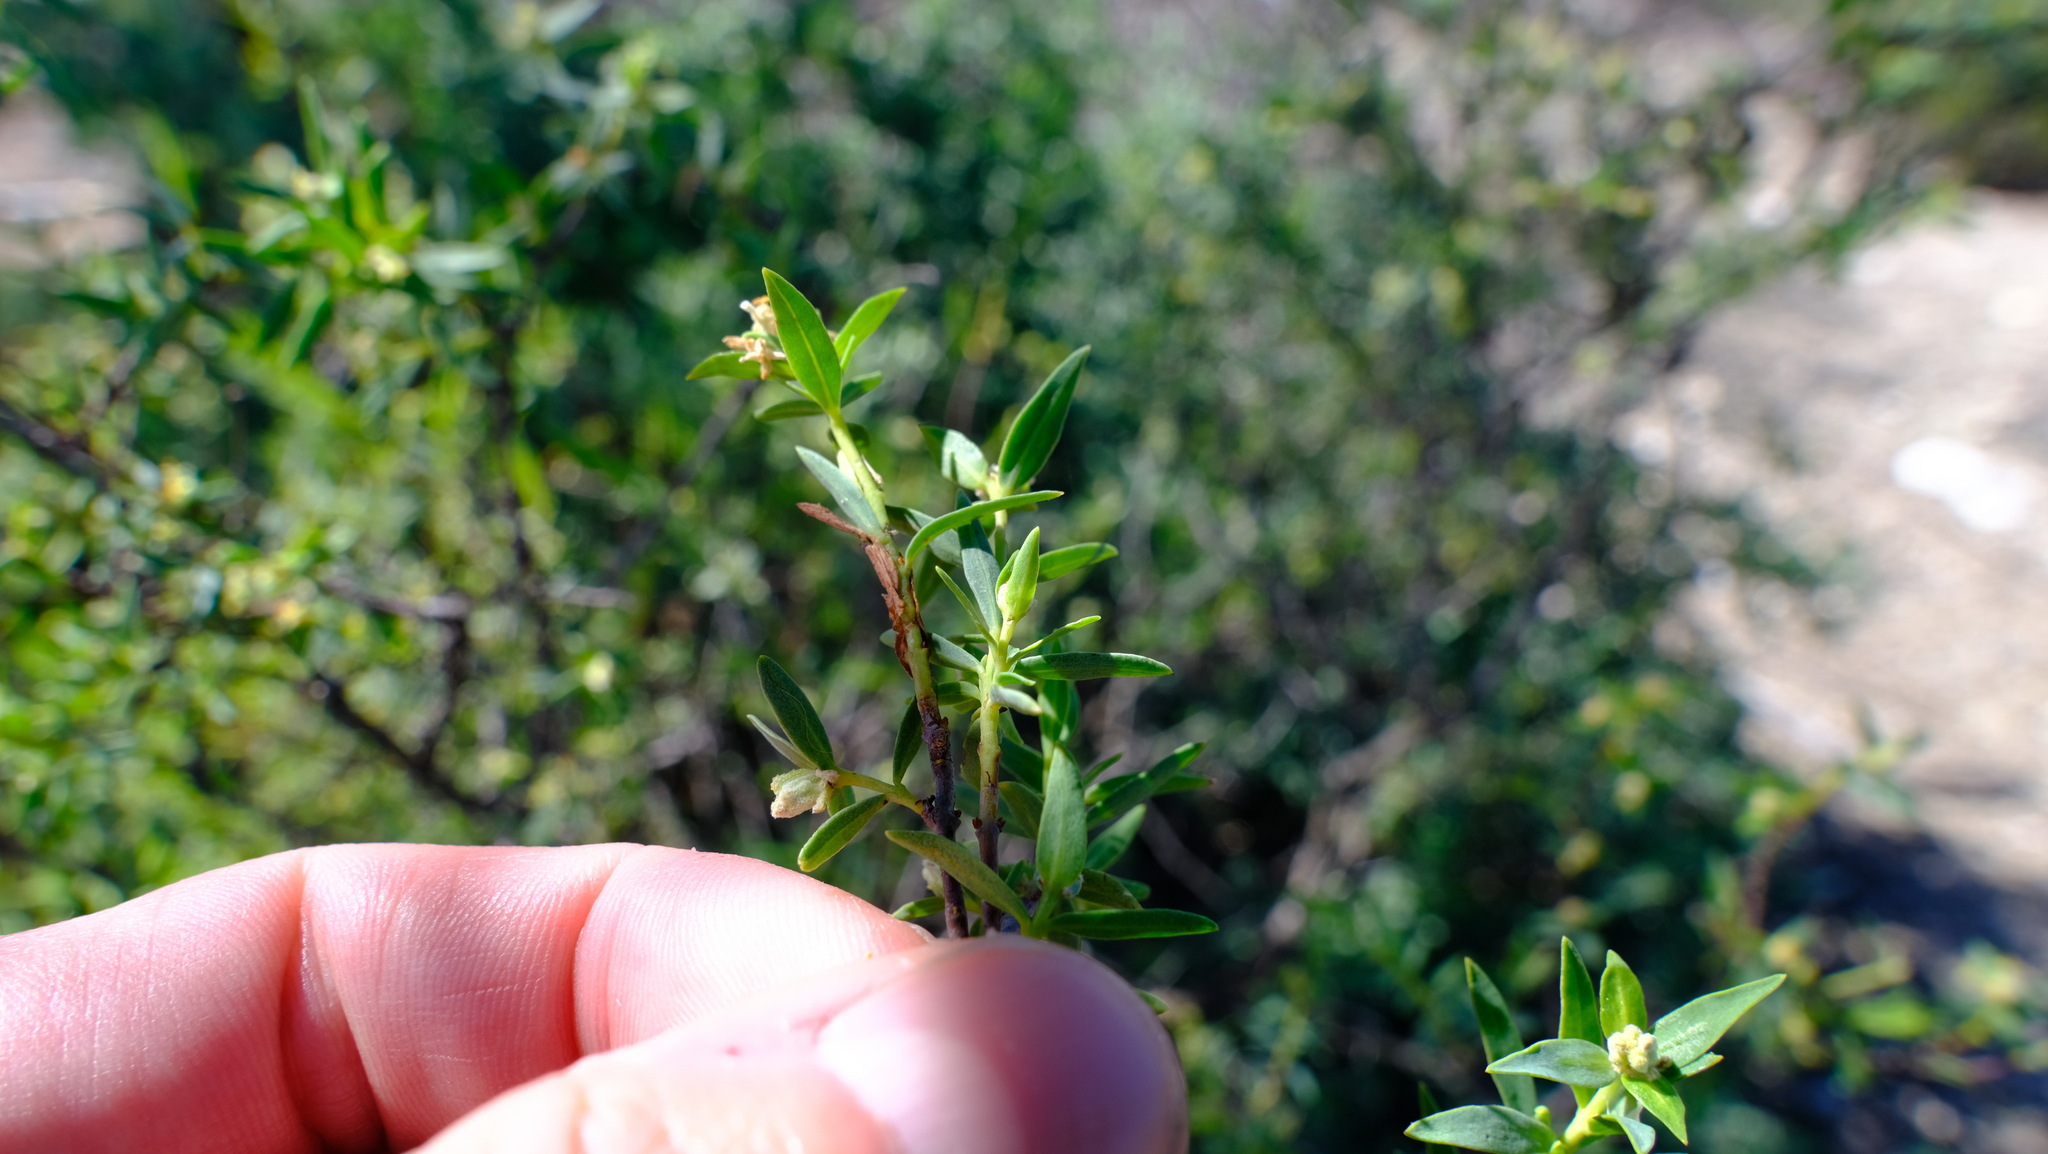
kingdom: Plantae
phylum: Tracheophyta
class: Magnoliopsida
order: Malvales
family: Thymelaeaceae
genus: Pimelea
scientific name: Pimelea microcephala
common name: Mallee riceflower
